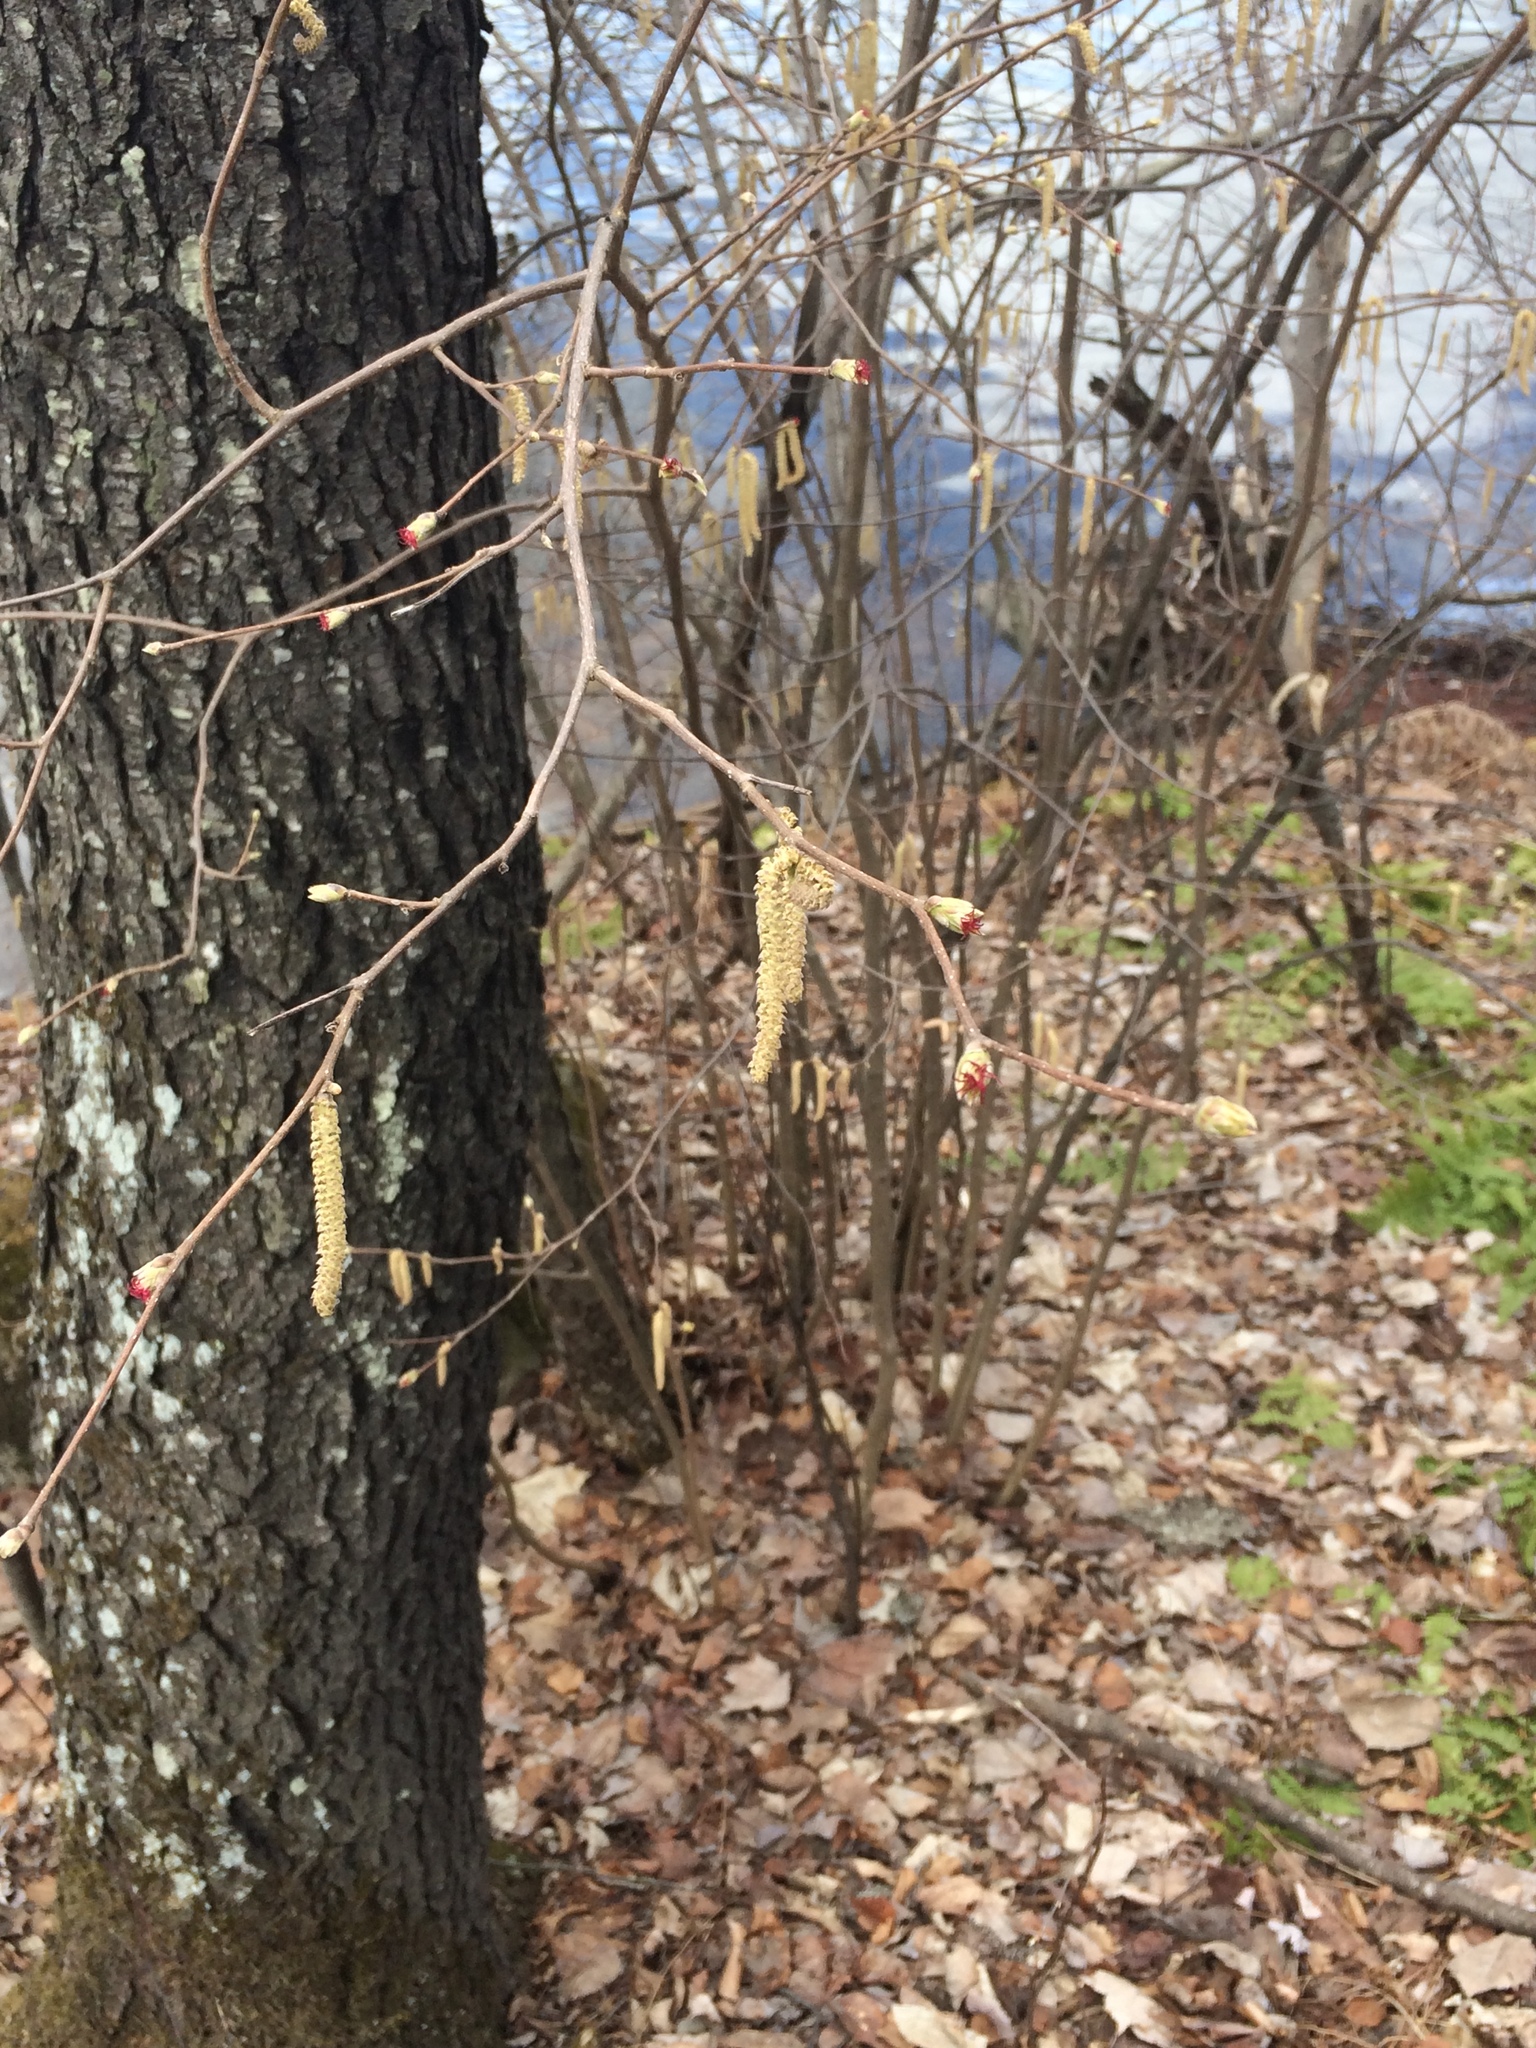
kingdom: Plantae
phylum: Tracheophyta
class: Magnoliopsida
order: Fagales
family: Betulaceae
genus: Corylus
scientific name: Corylus cornuta
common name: Beaked hazel
